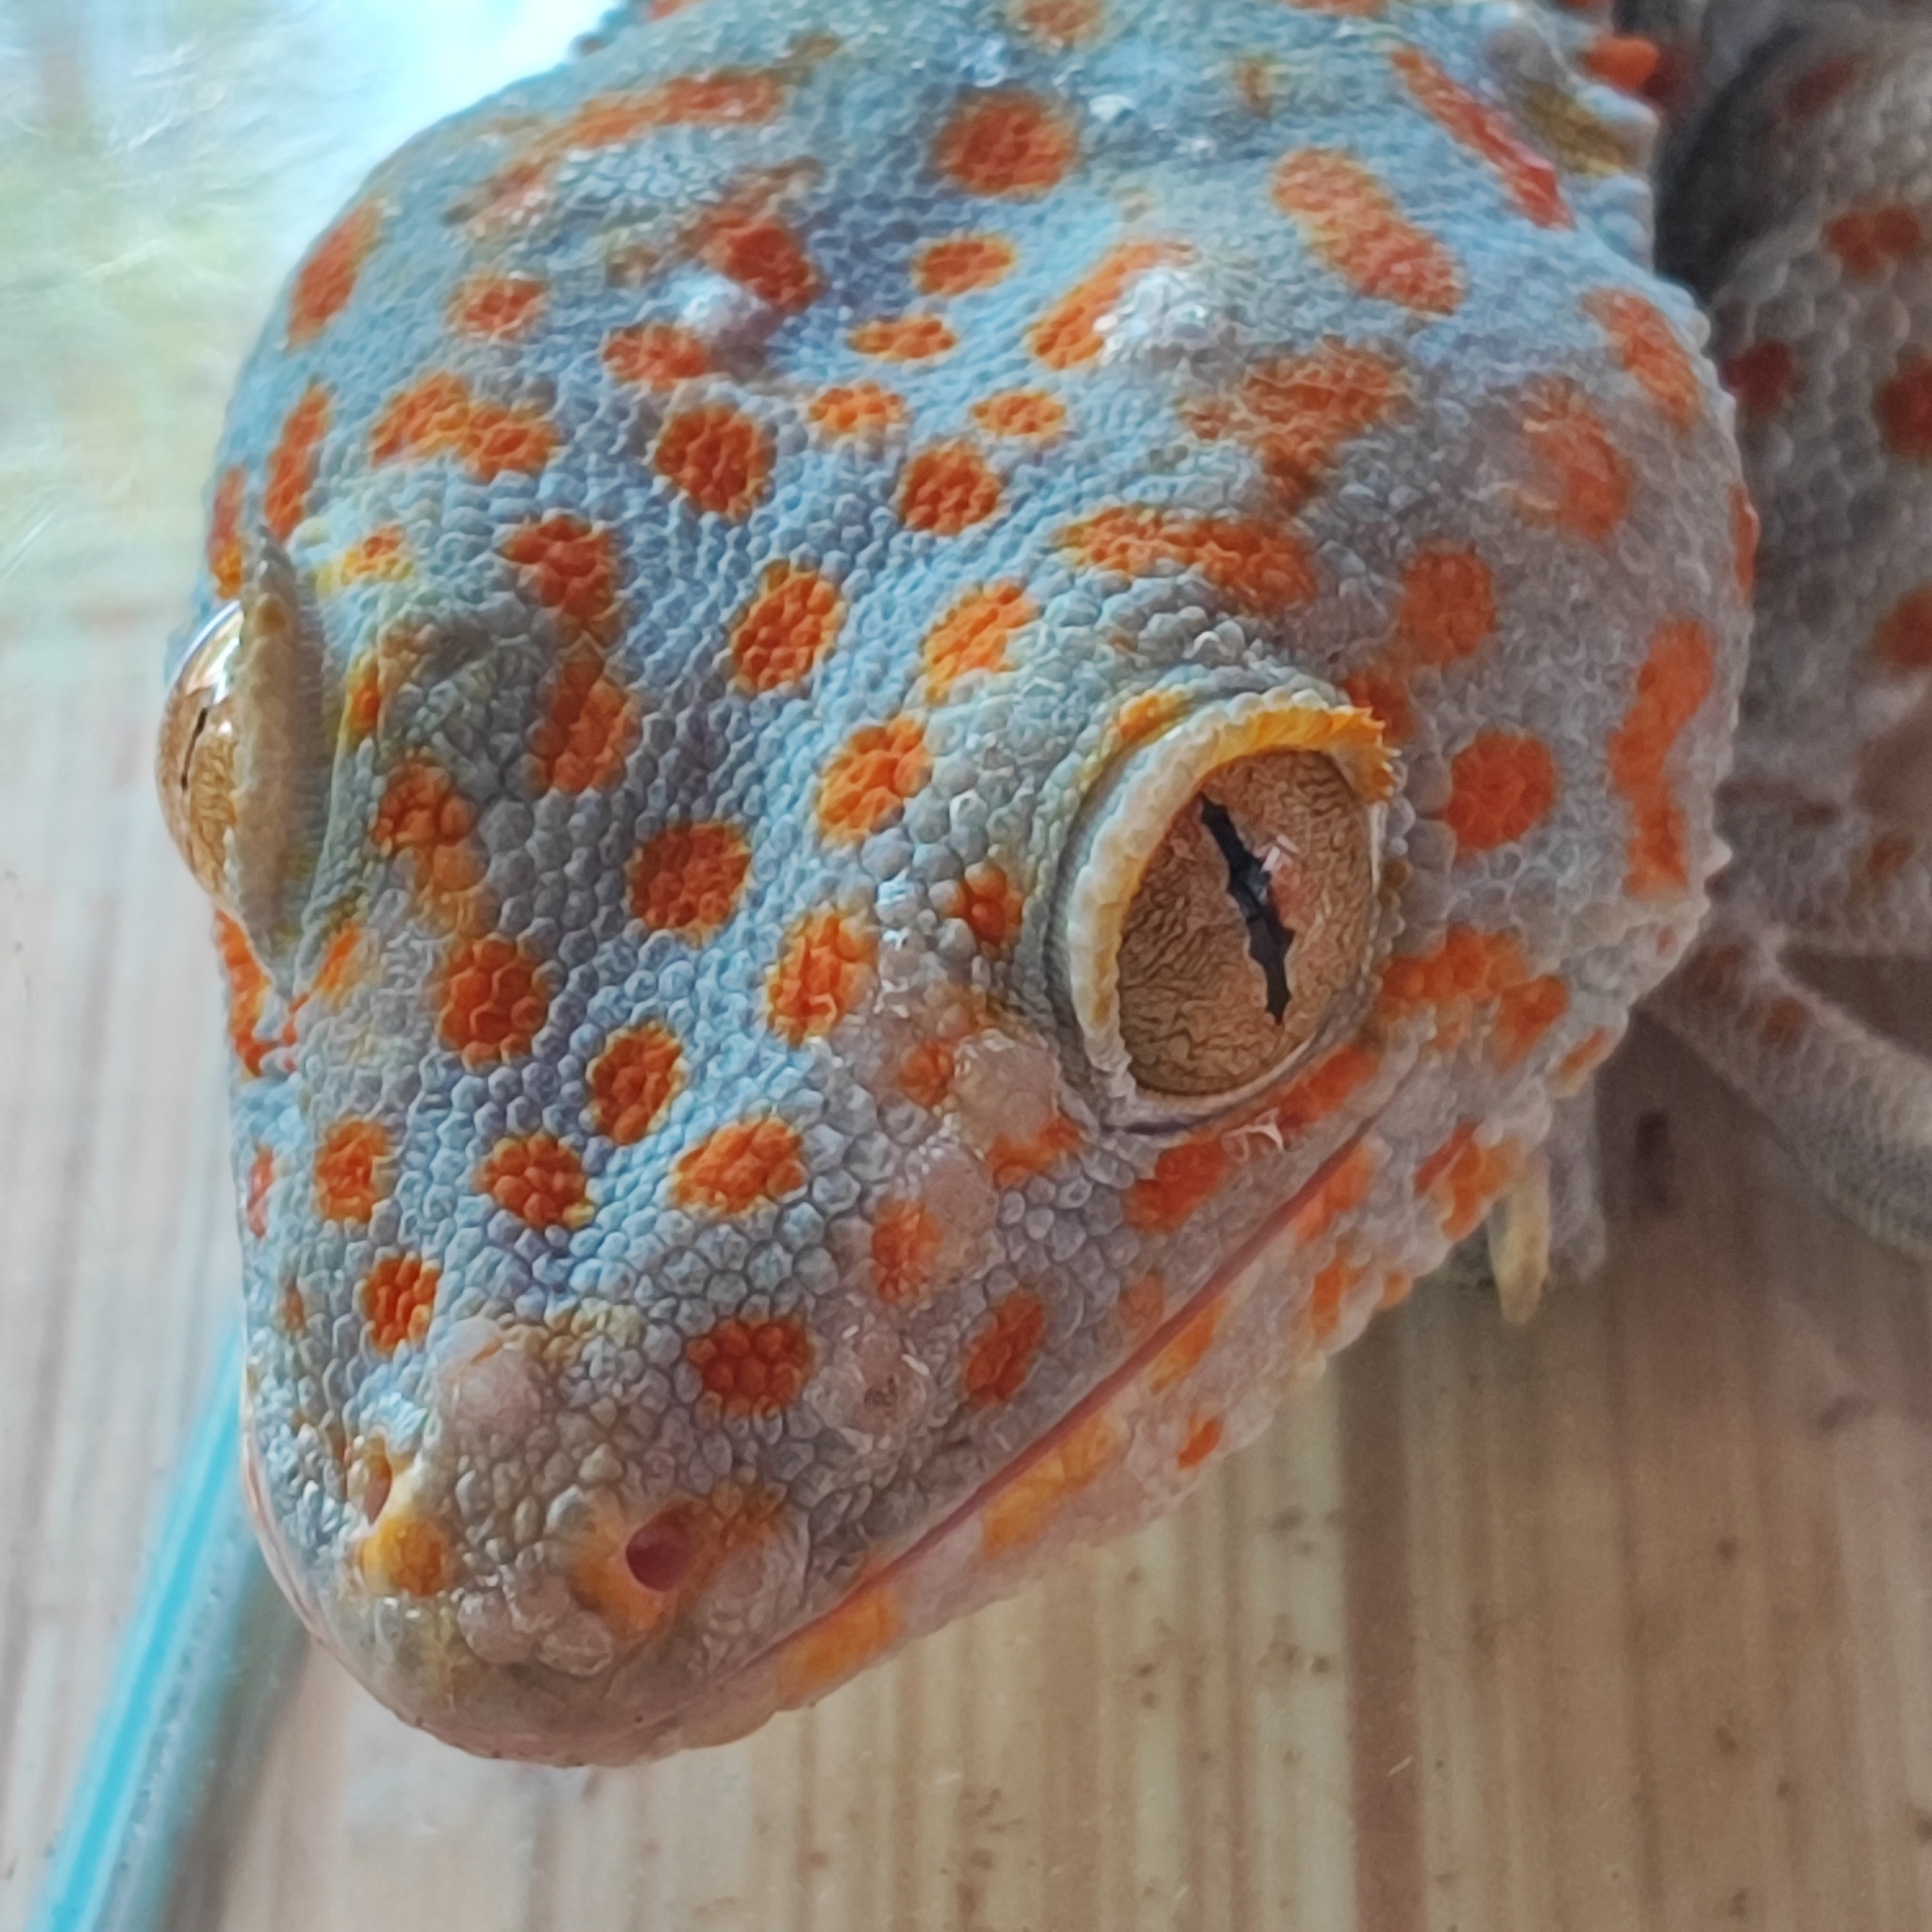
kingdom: Animalia
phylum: Chordata
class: Squamata
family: Gekkonidae
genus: Gekko
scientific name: Gekko gecko
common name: Tokay gecko
